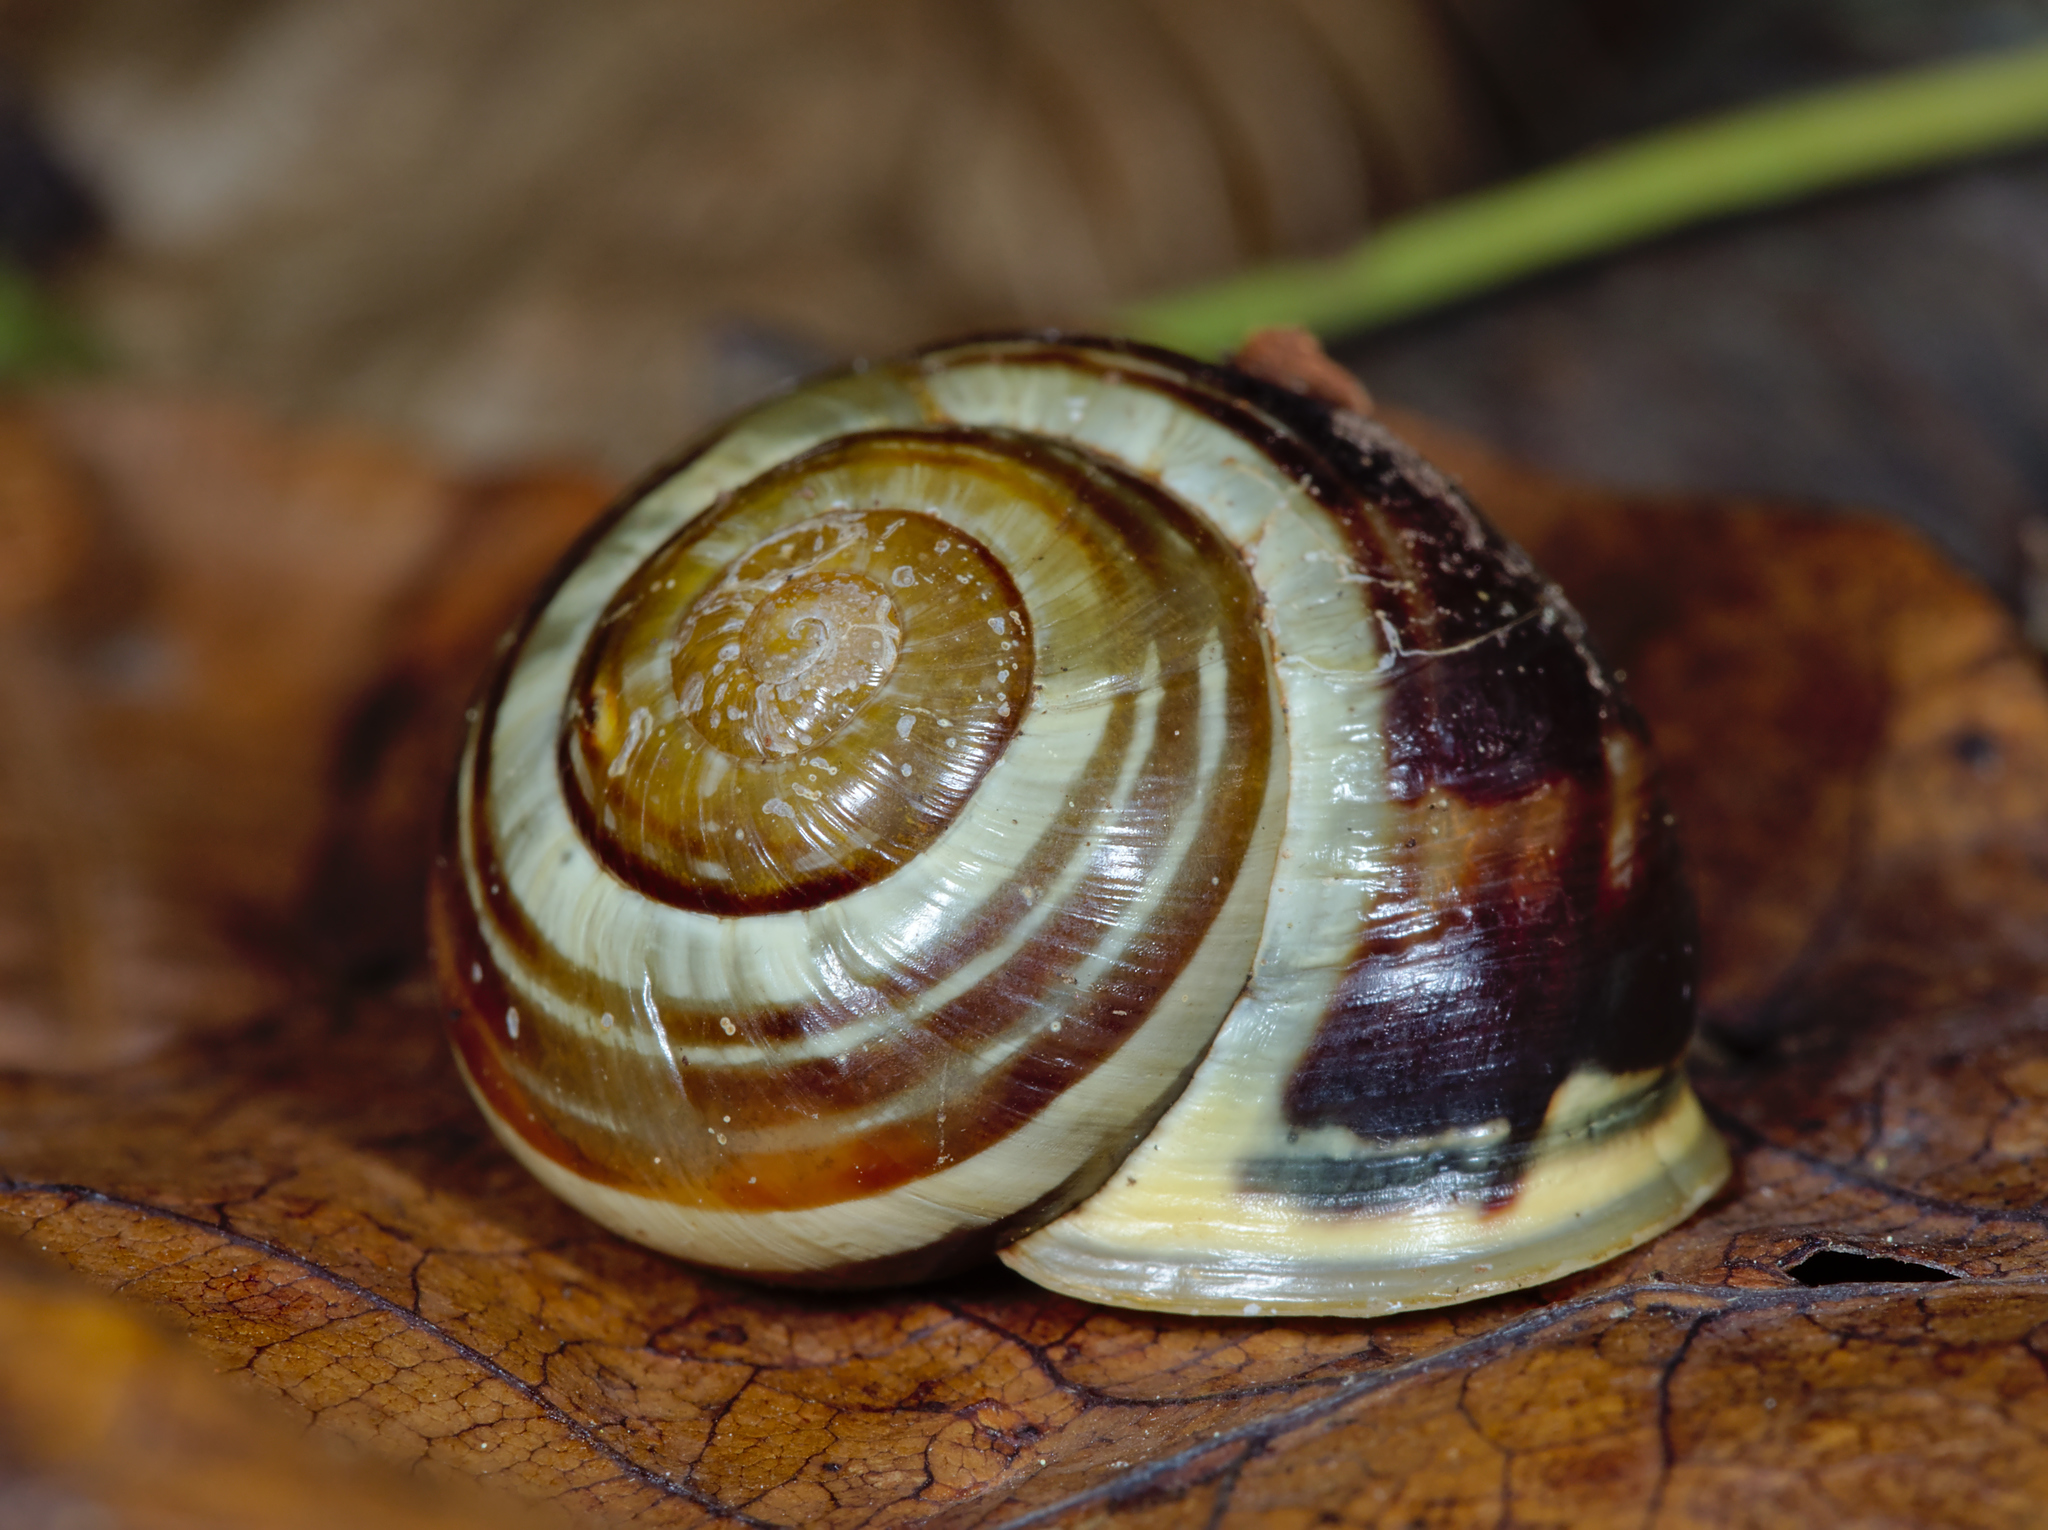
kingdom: Animalia
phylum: Mollusca
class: Gastropoda
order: Stylommatophora
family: Helicidae
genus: Cepaea
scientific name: Cepaea hortensis
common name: White-lip gardensnail
